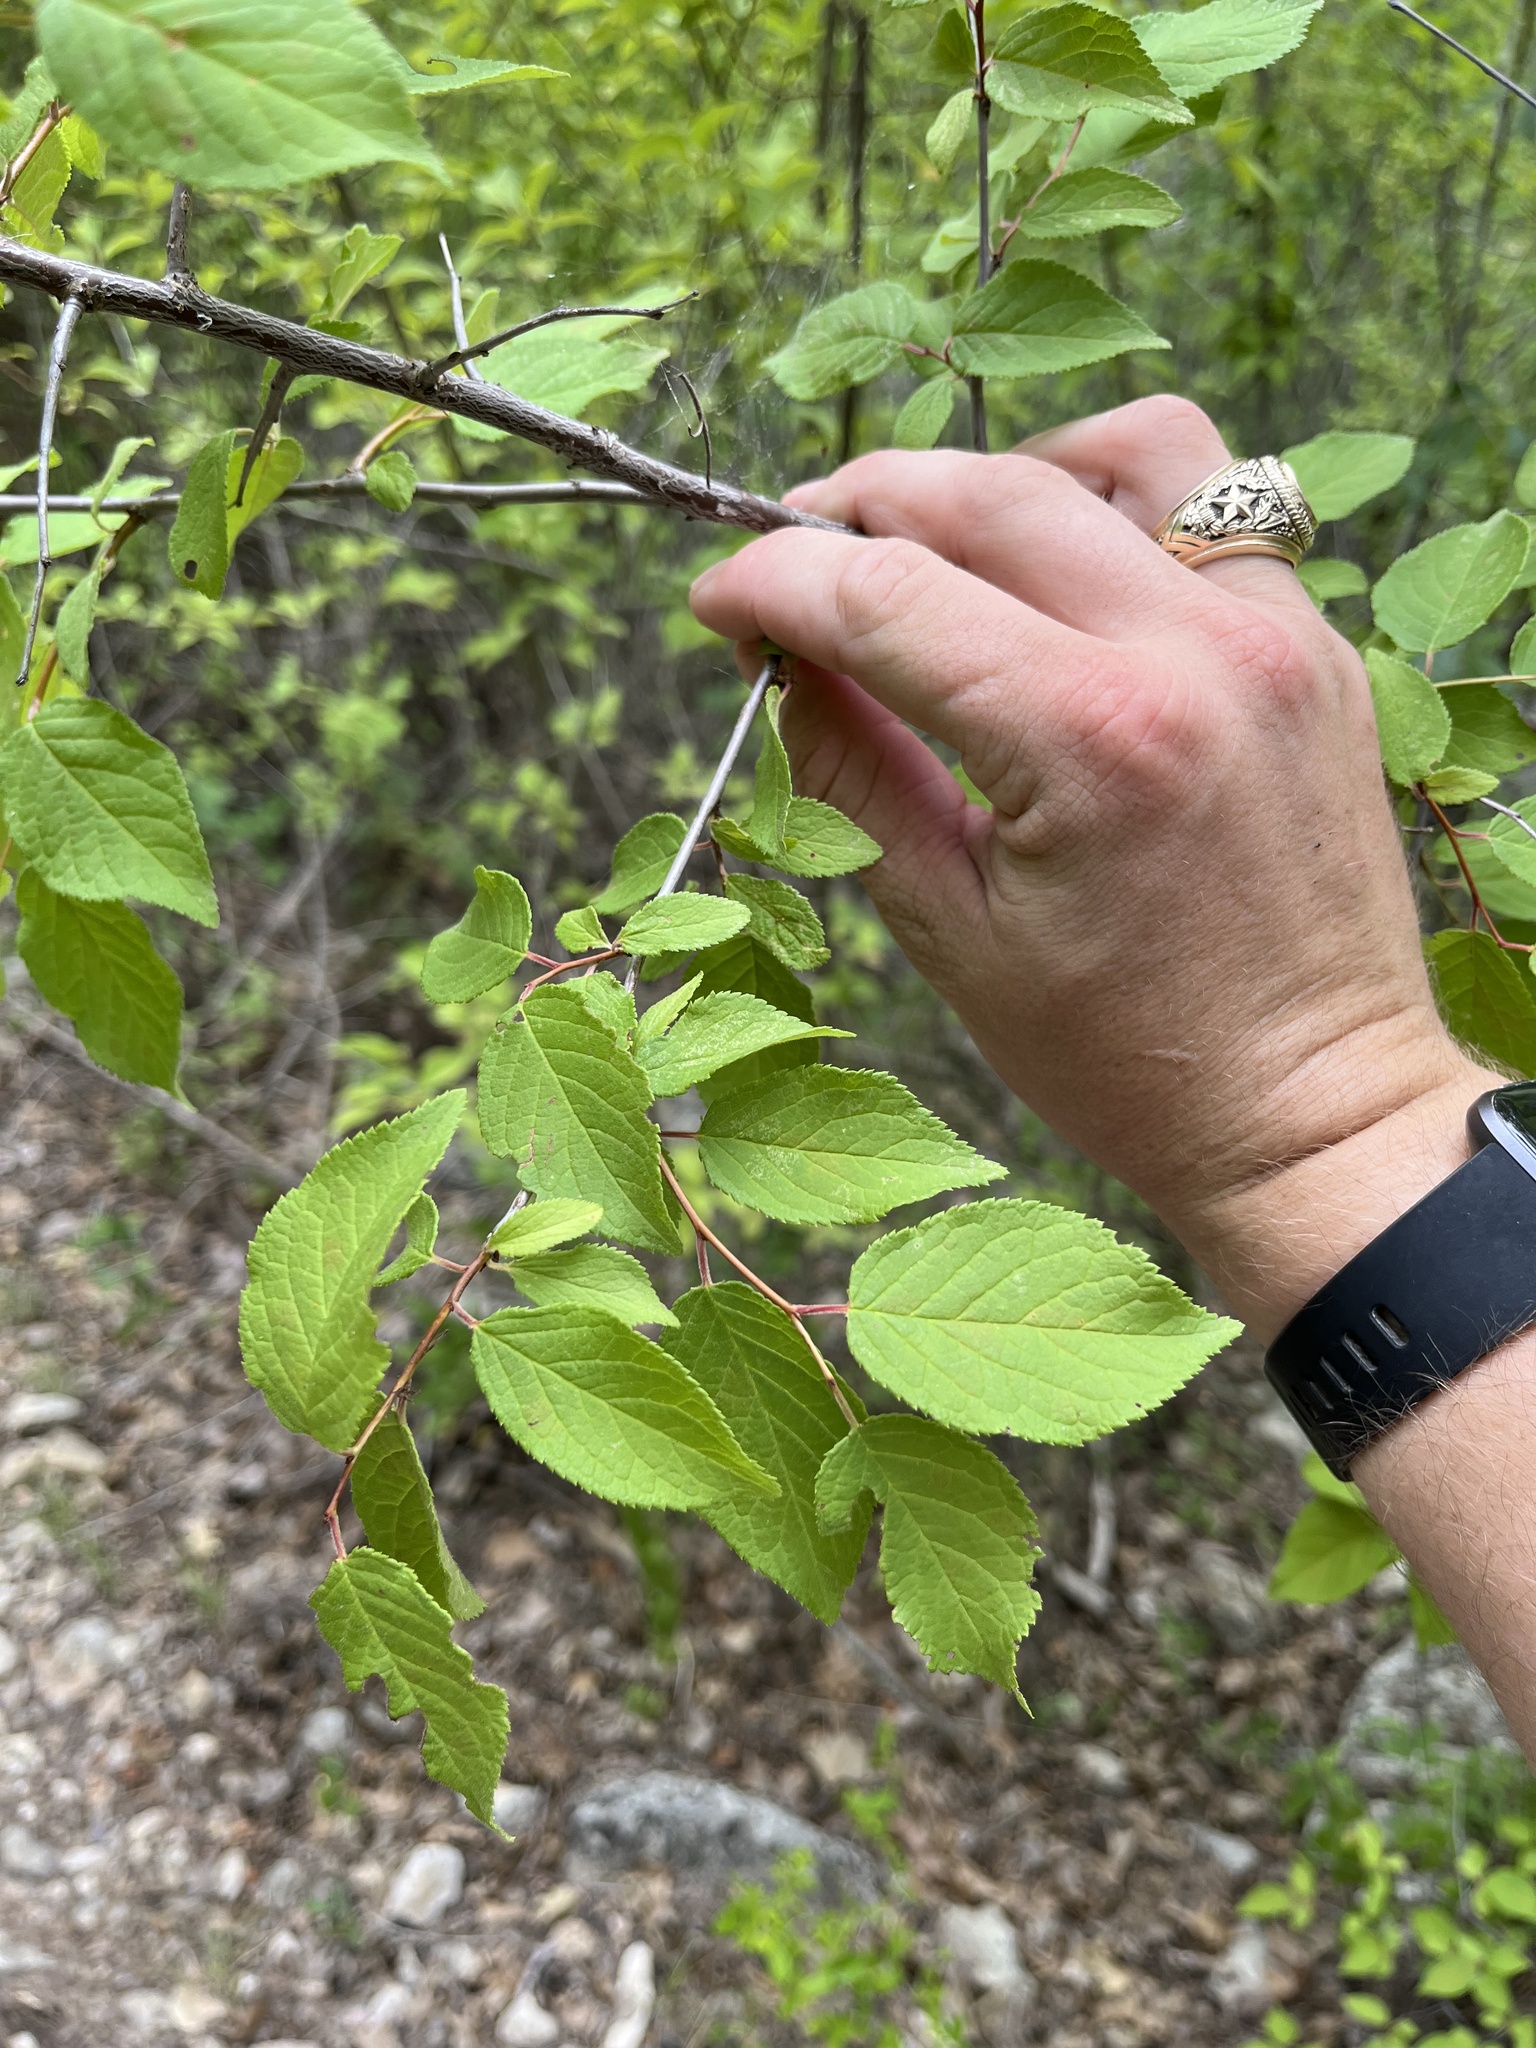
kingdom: Plantae
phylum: Tracheophyta
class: Magnoliopsida
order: Rosales
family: Rosaceae
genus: Prunus
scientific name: Prunus mexicana
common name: Mexican plum
